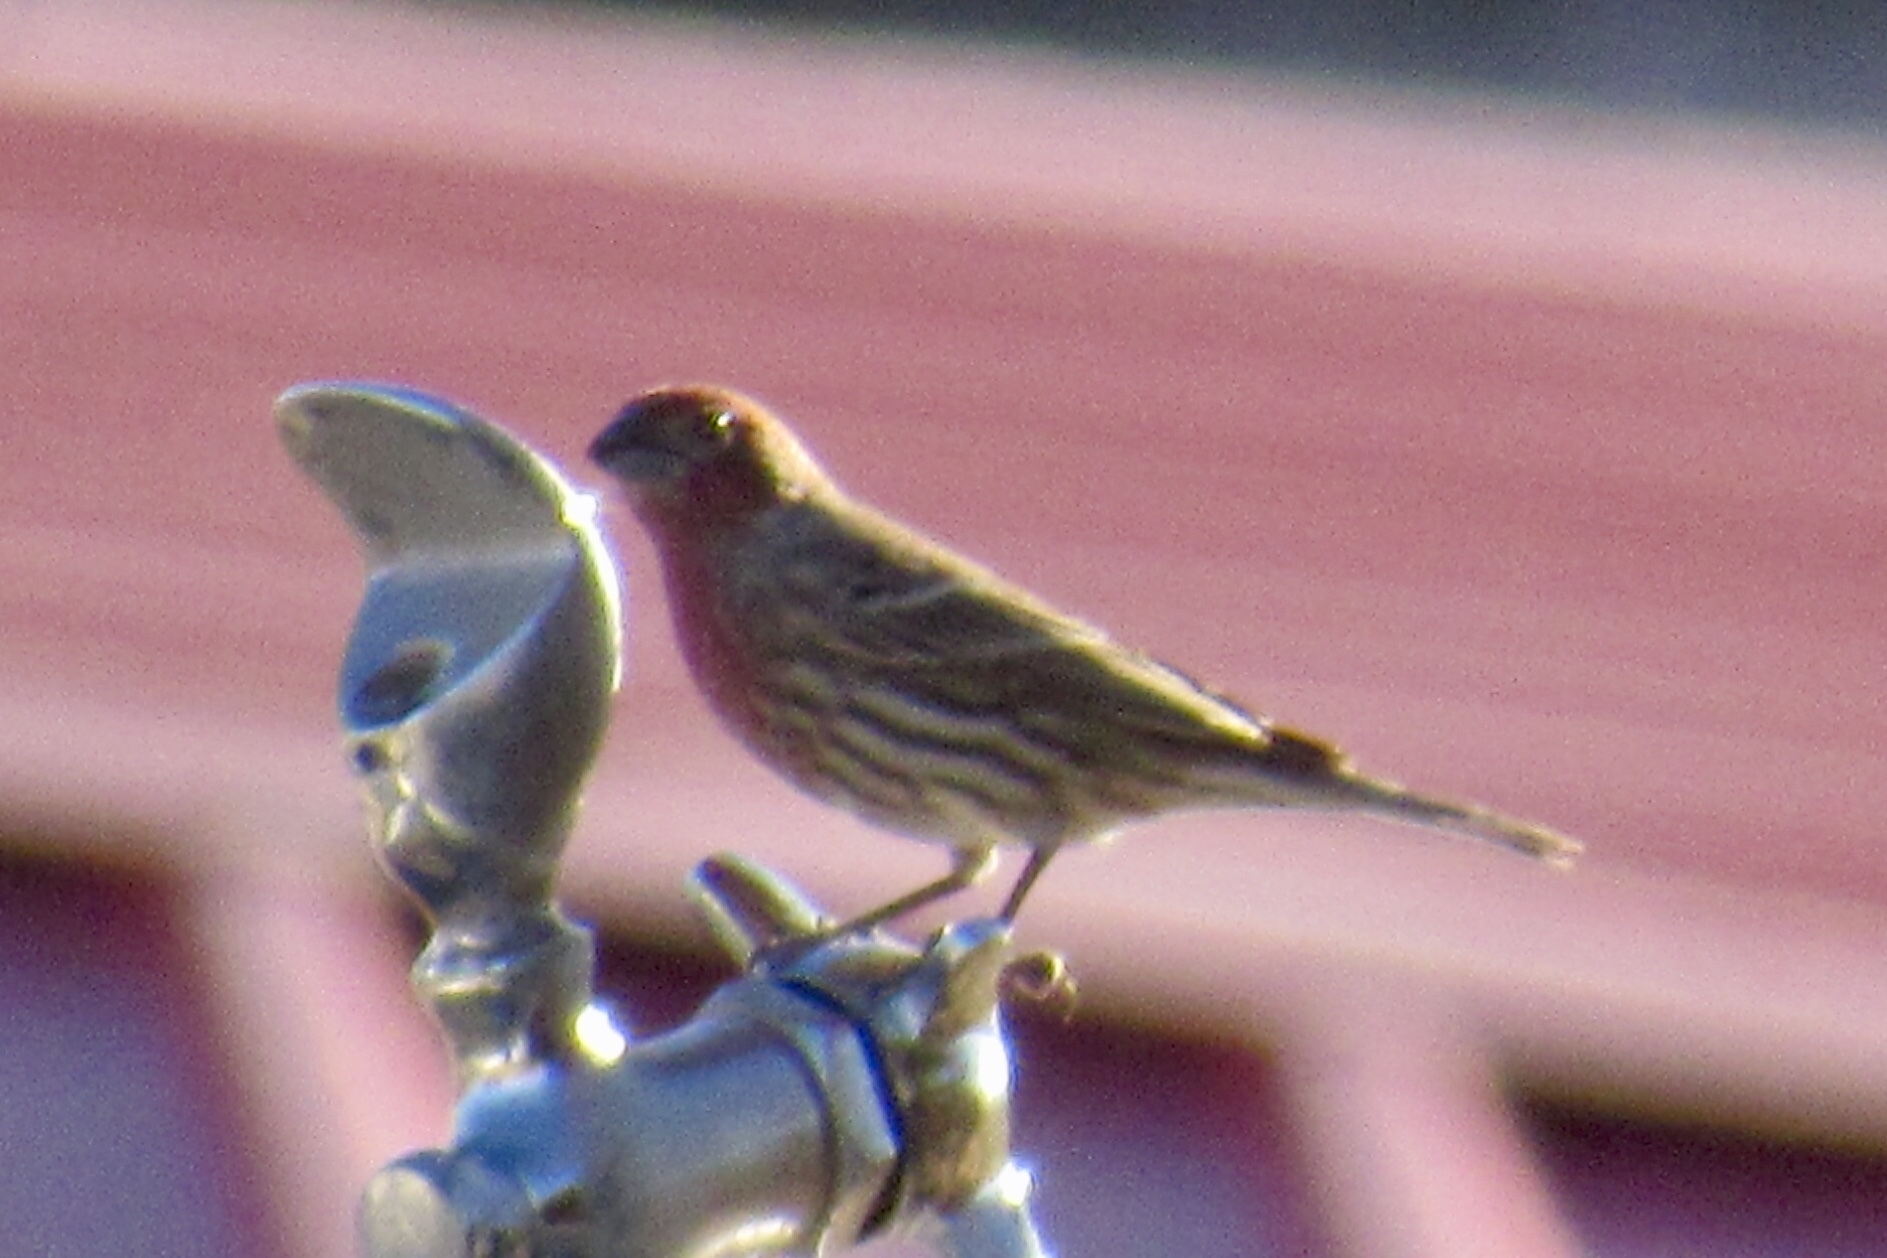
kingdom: Animalia
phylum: Chordata
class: Aves
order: Passeriformes
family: Fringillidae
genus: Haemorhous
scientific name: Haemorhous mexicanus
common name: House finch
